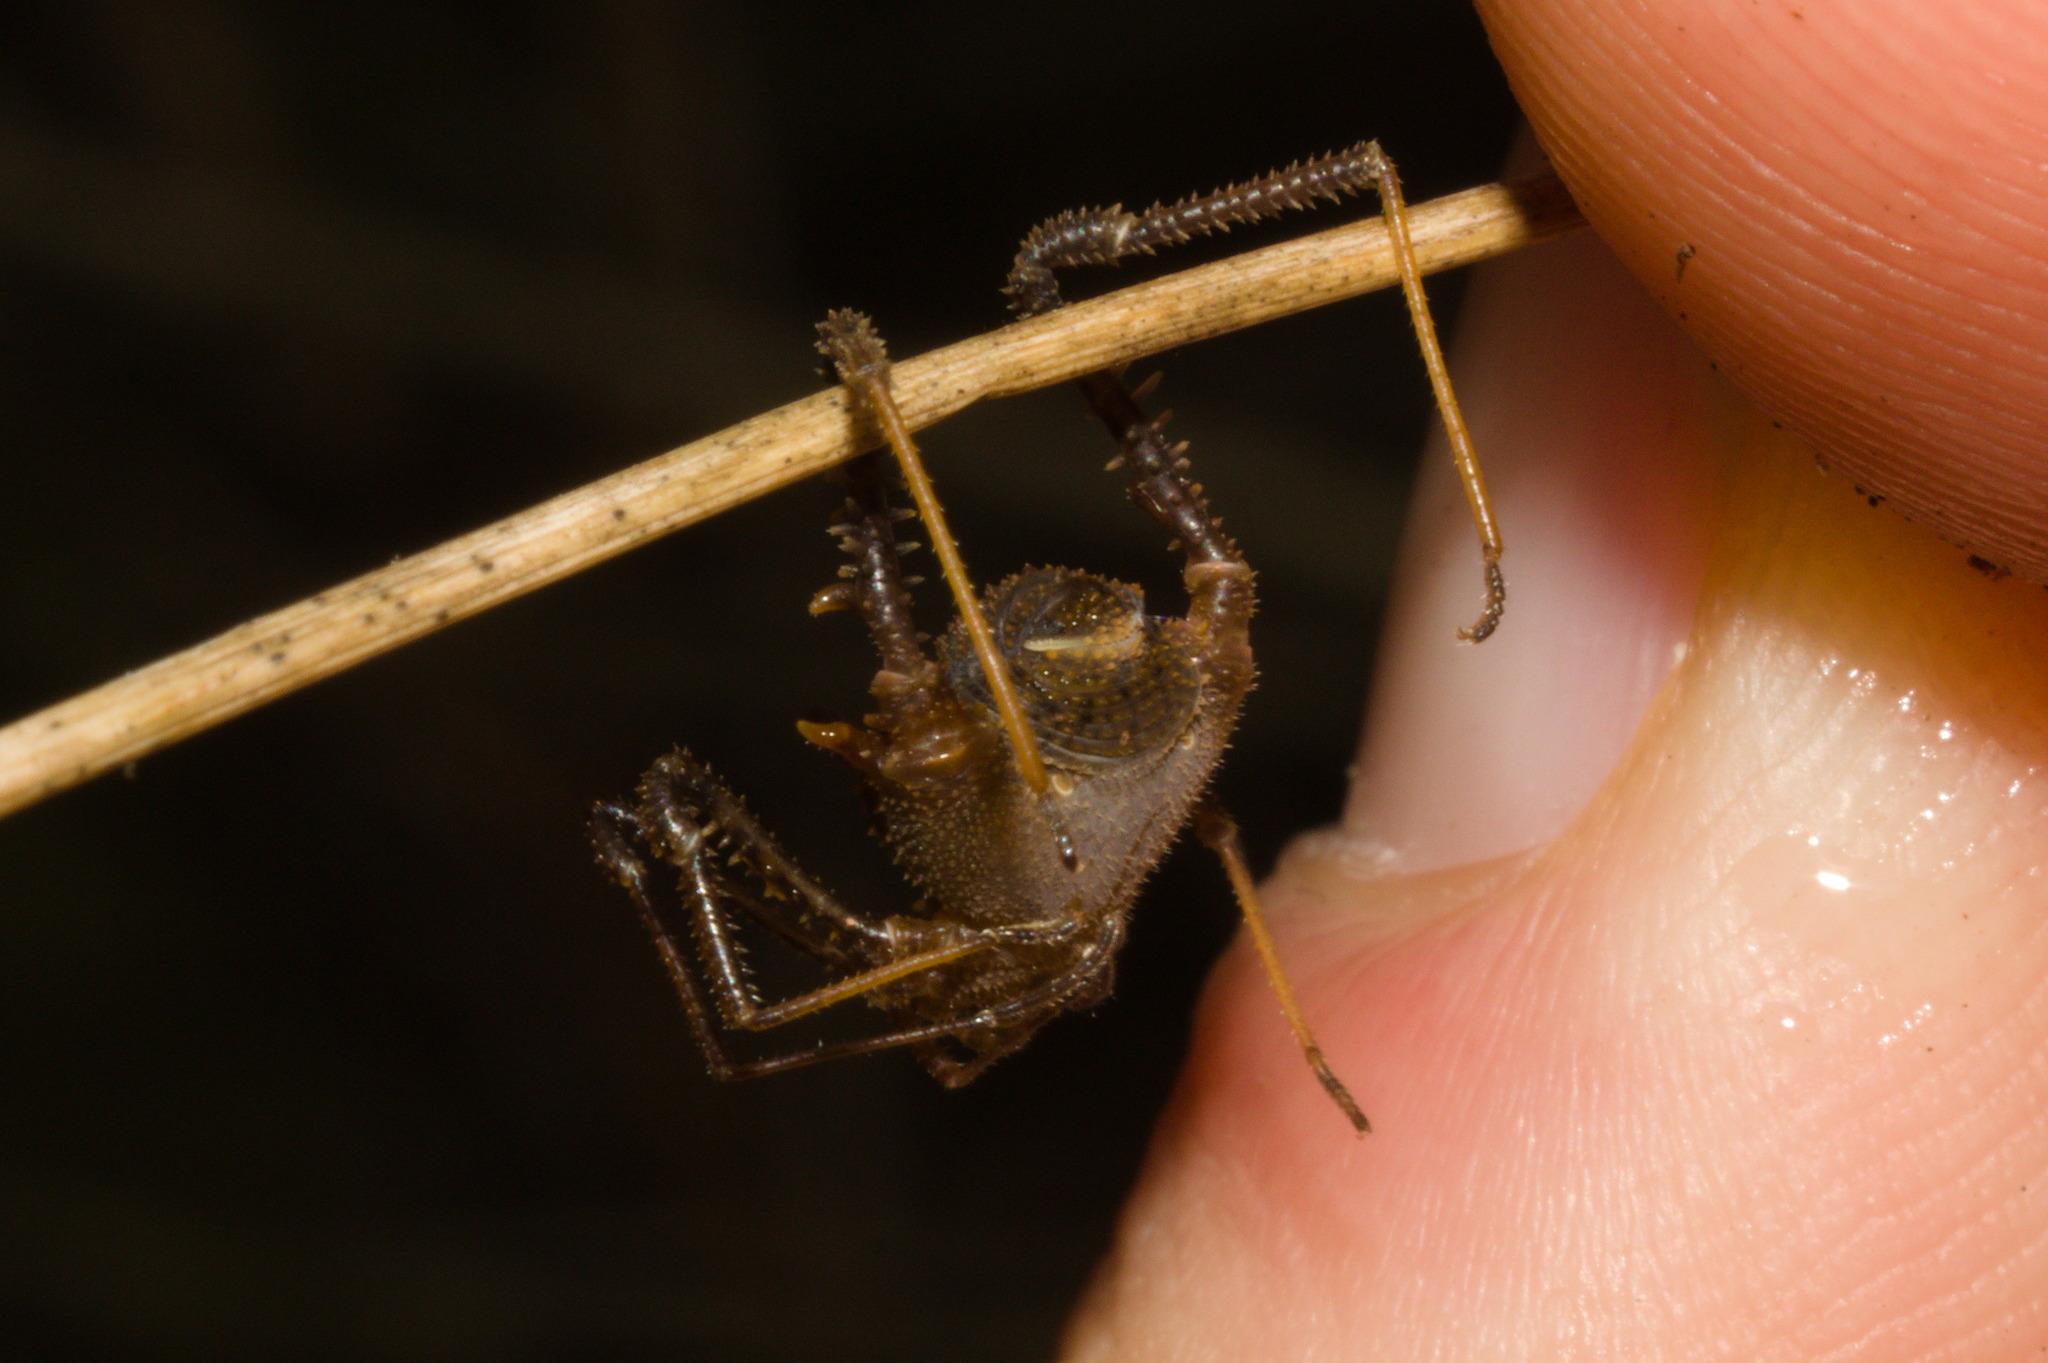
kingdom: Animalia
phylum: Arthropoda
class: Arachnida
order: Opiliones
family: Gonyleptidae
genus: Hernandaria
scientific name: Hernandaria armatifrons
